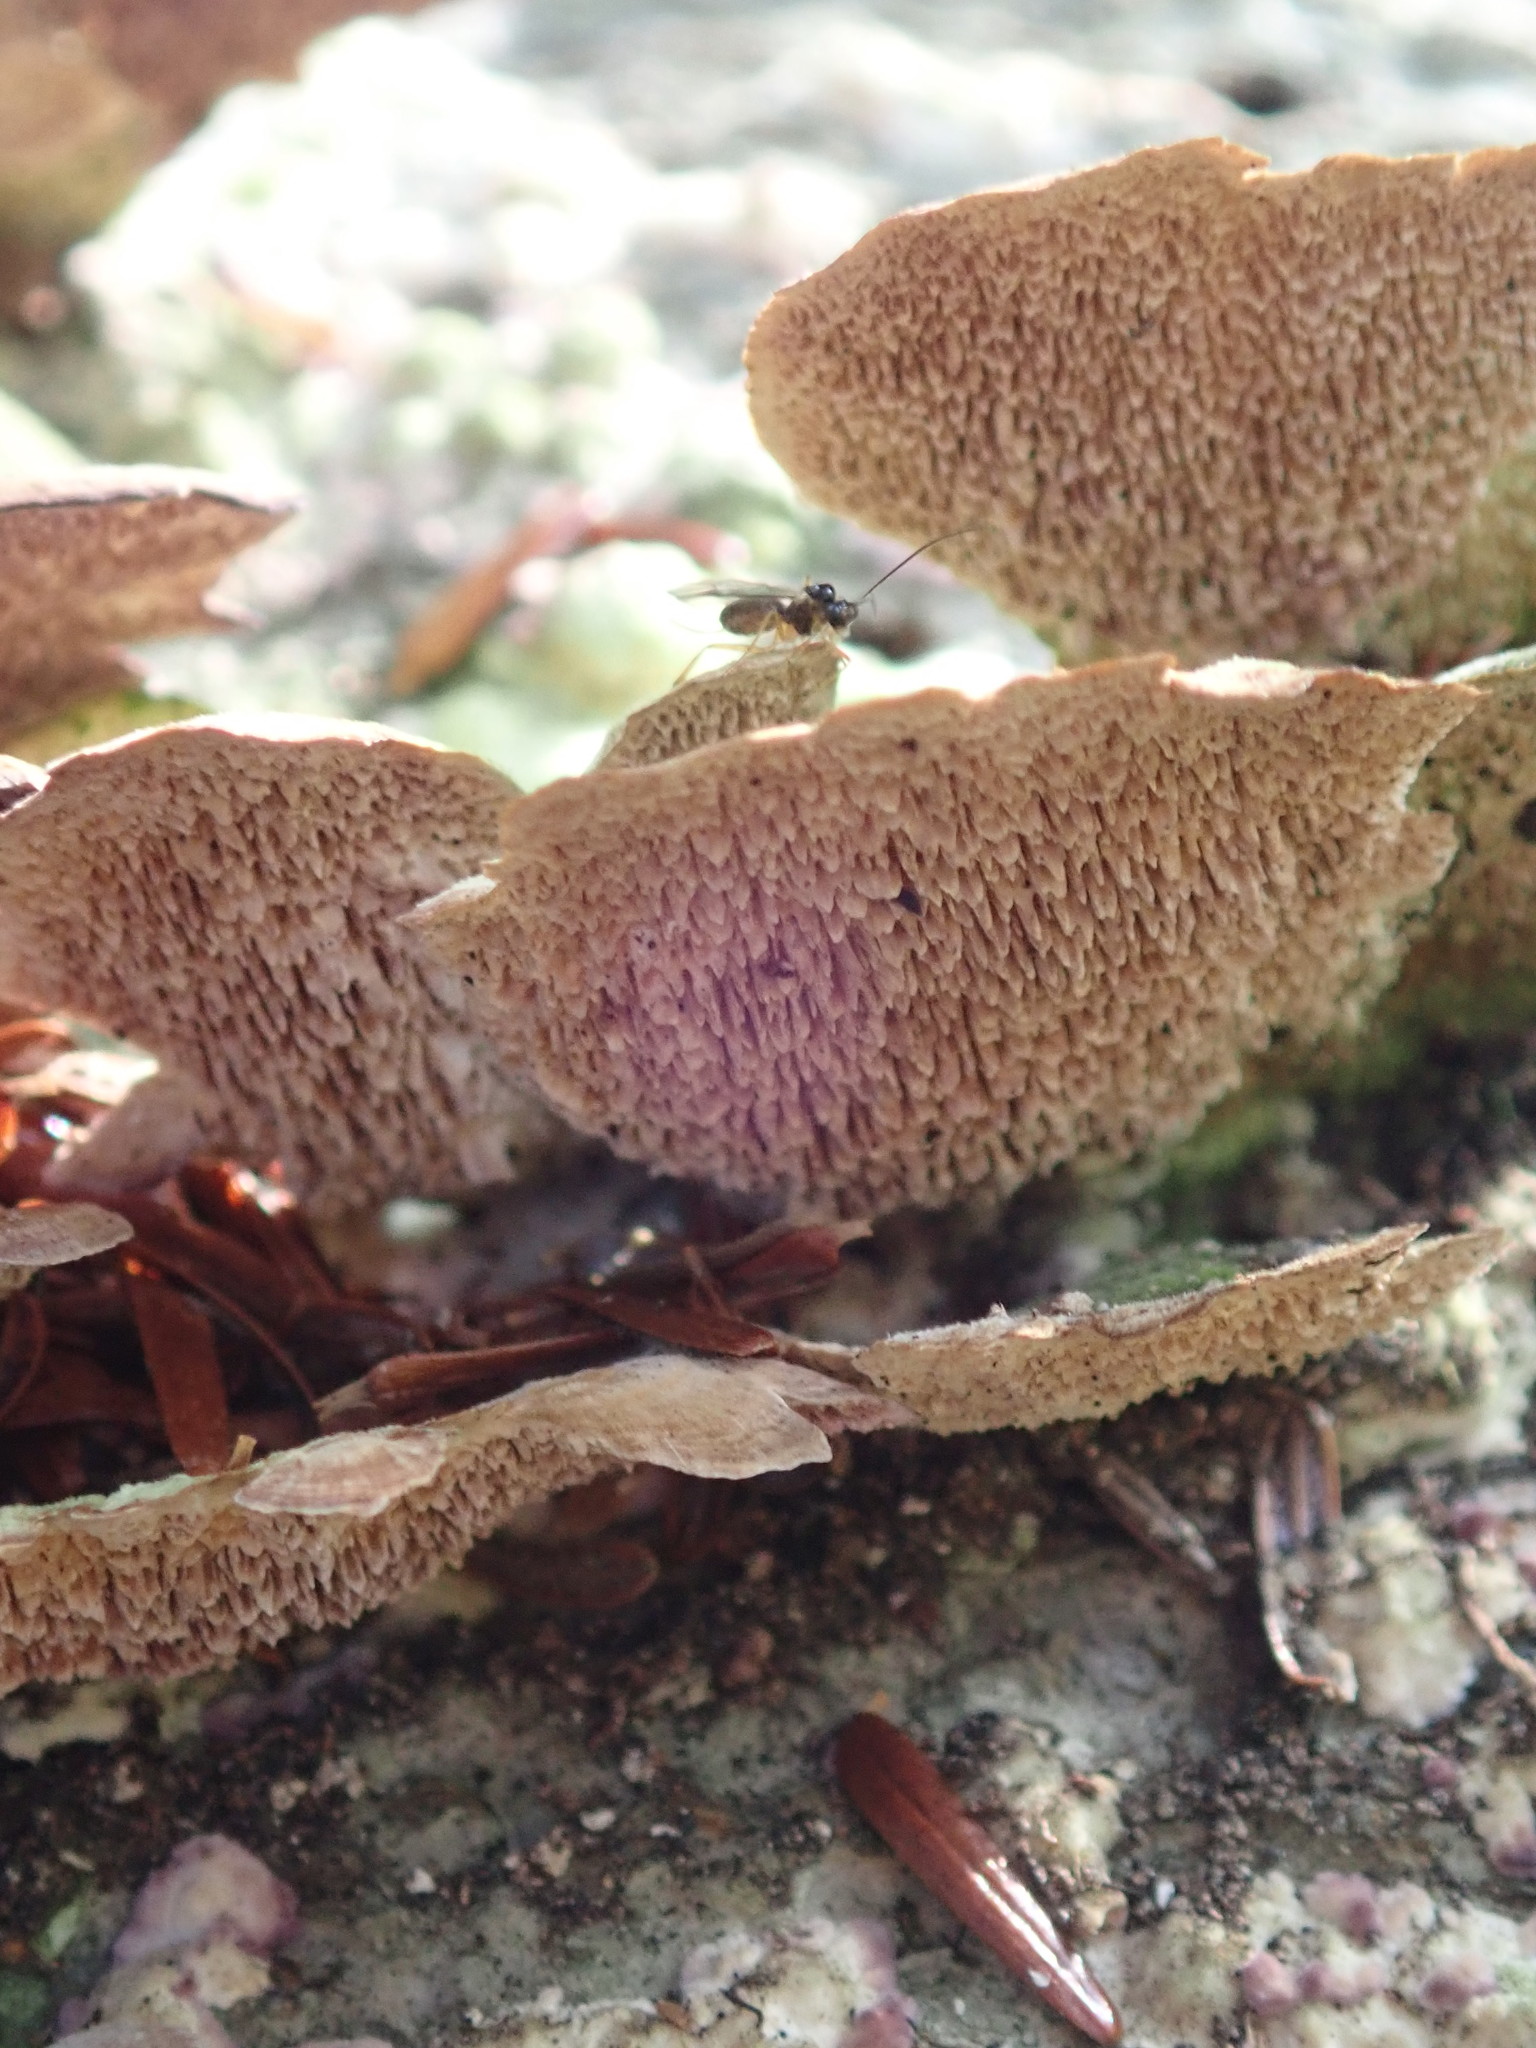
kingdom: Fungi
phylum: Basidiomycota
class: Agaricomycetes
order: Hymenochaetales
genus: Trichaptum
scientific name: Trichaptum biforme
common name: Violet-toothed polypore
